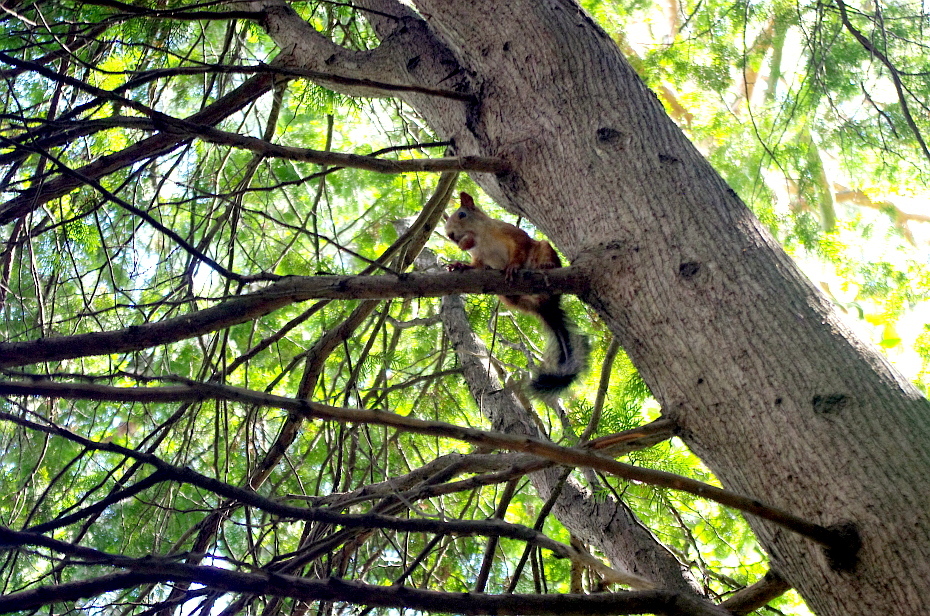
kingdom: Animalia
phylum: Chordata
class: Mammalia
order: Rodentia
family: Sciuridae
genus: Sciurus
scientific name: Sciurus vulgaris
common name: Eurasian red squirrel
